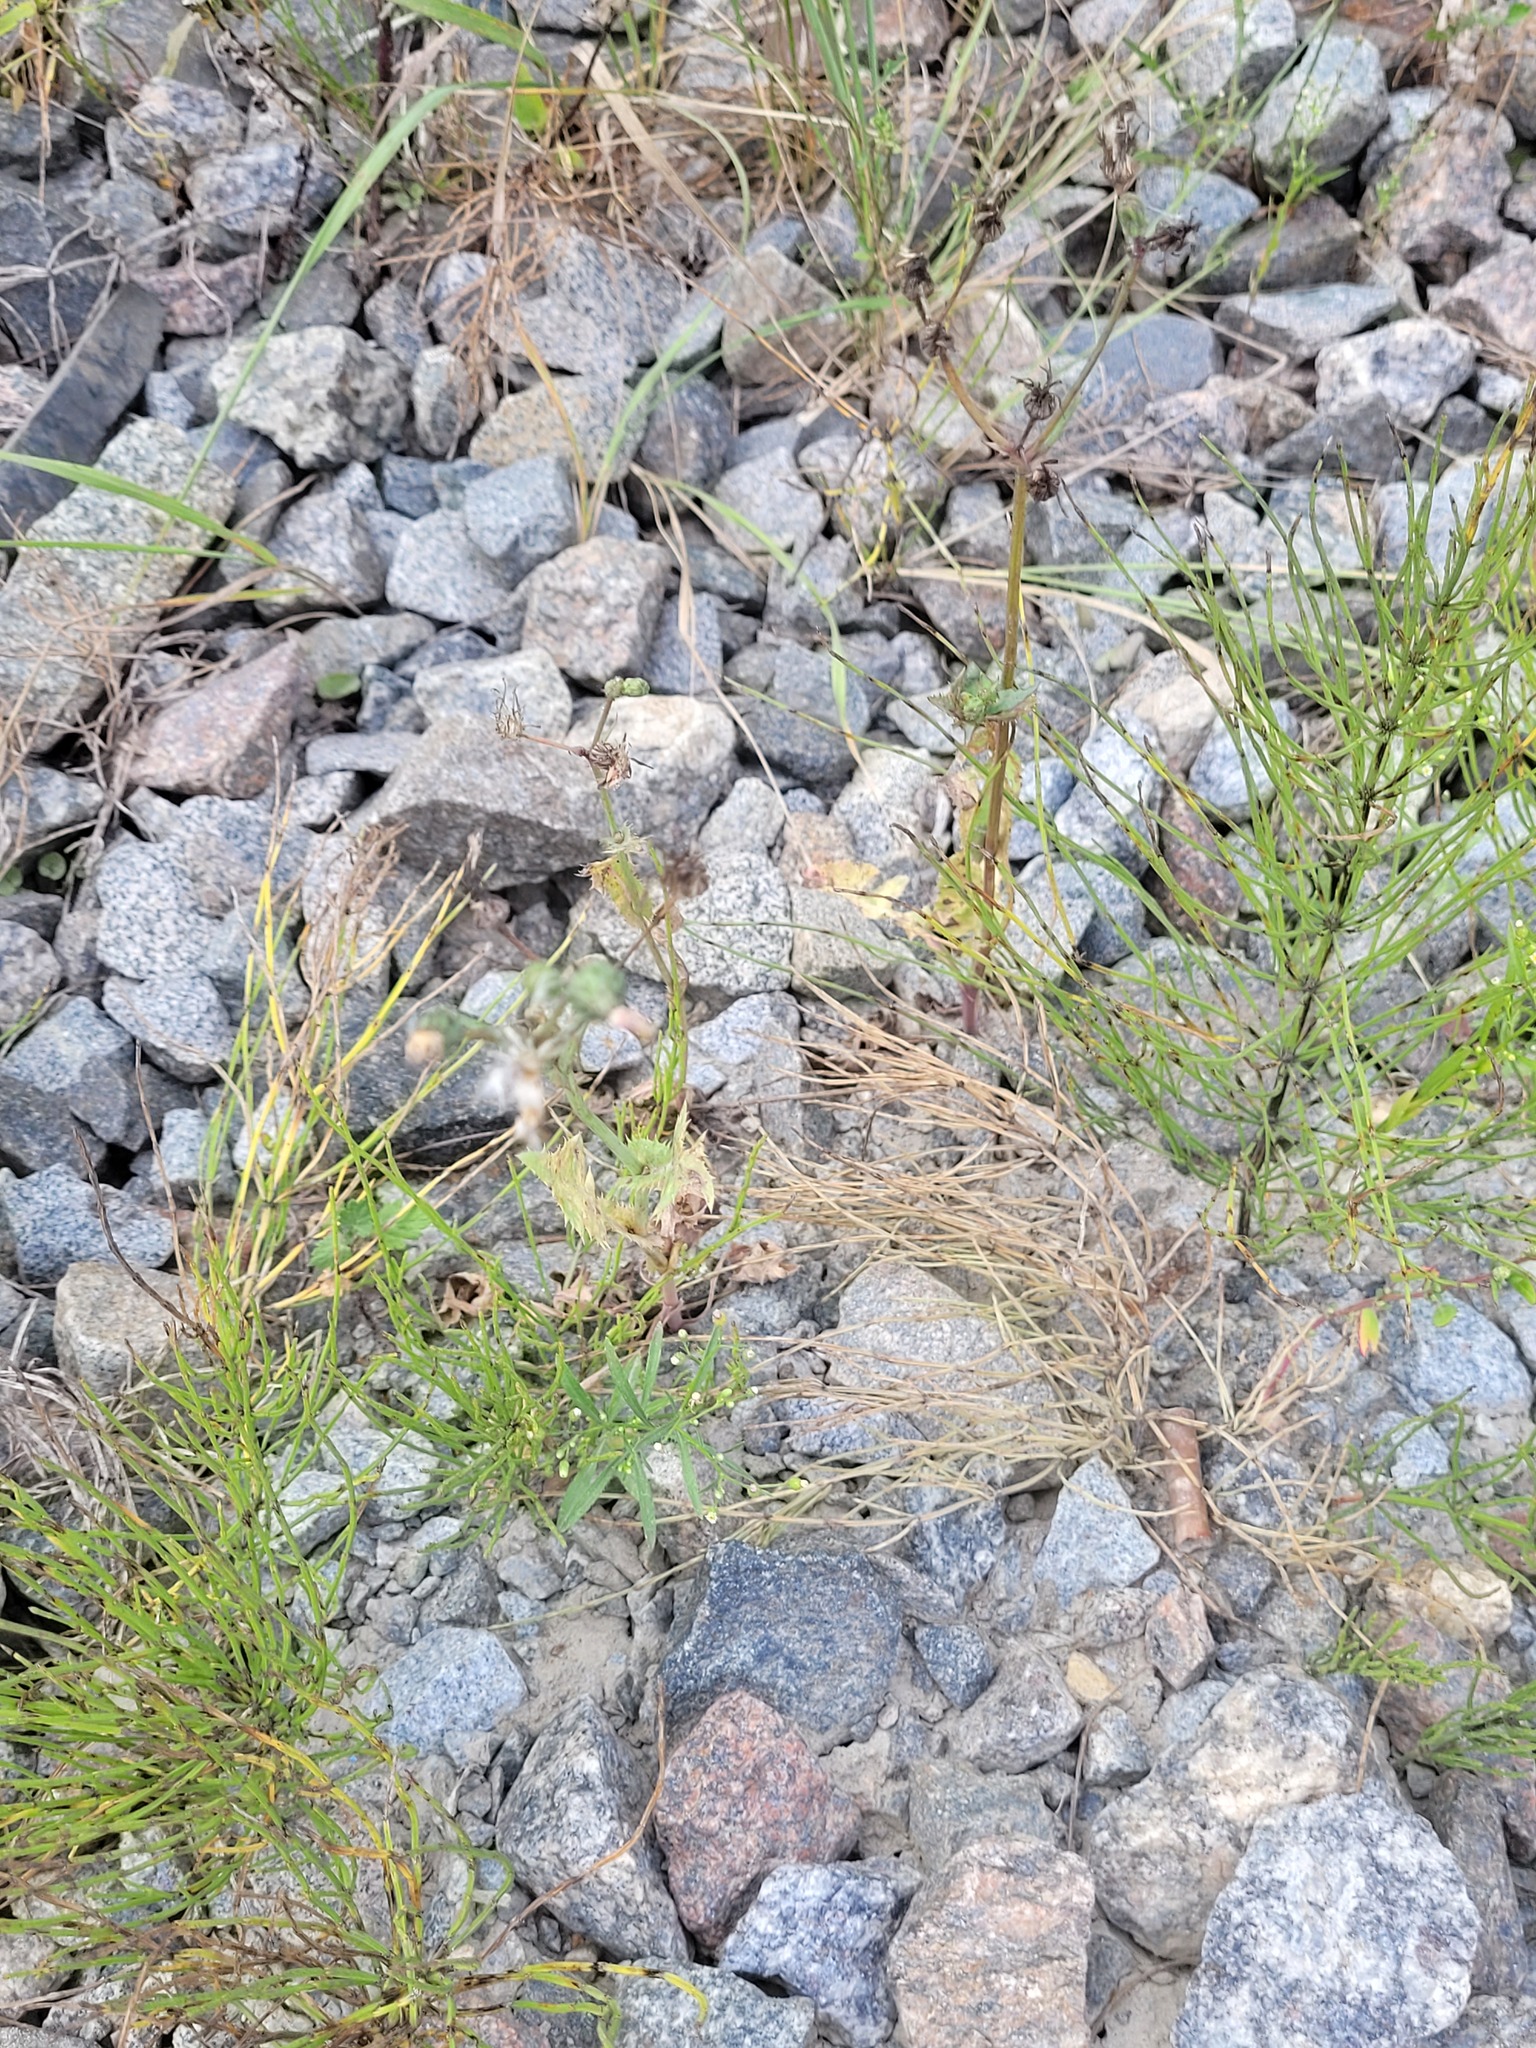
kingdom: Plantae
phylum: Tracheophyta
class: Magnoliopsida
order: Asterales
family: Asteraceae
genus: Sonchus
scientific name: Sonchus oleraceus
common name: Common sowthistle
